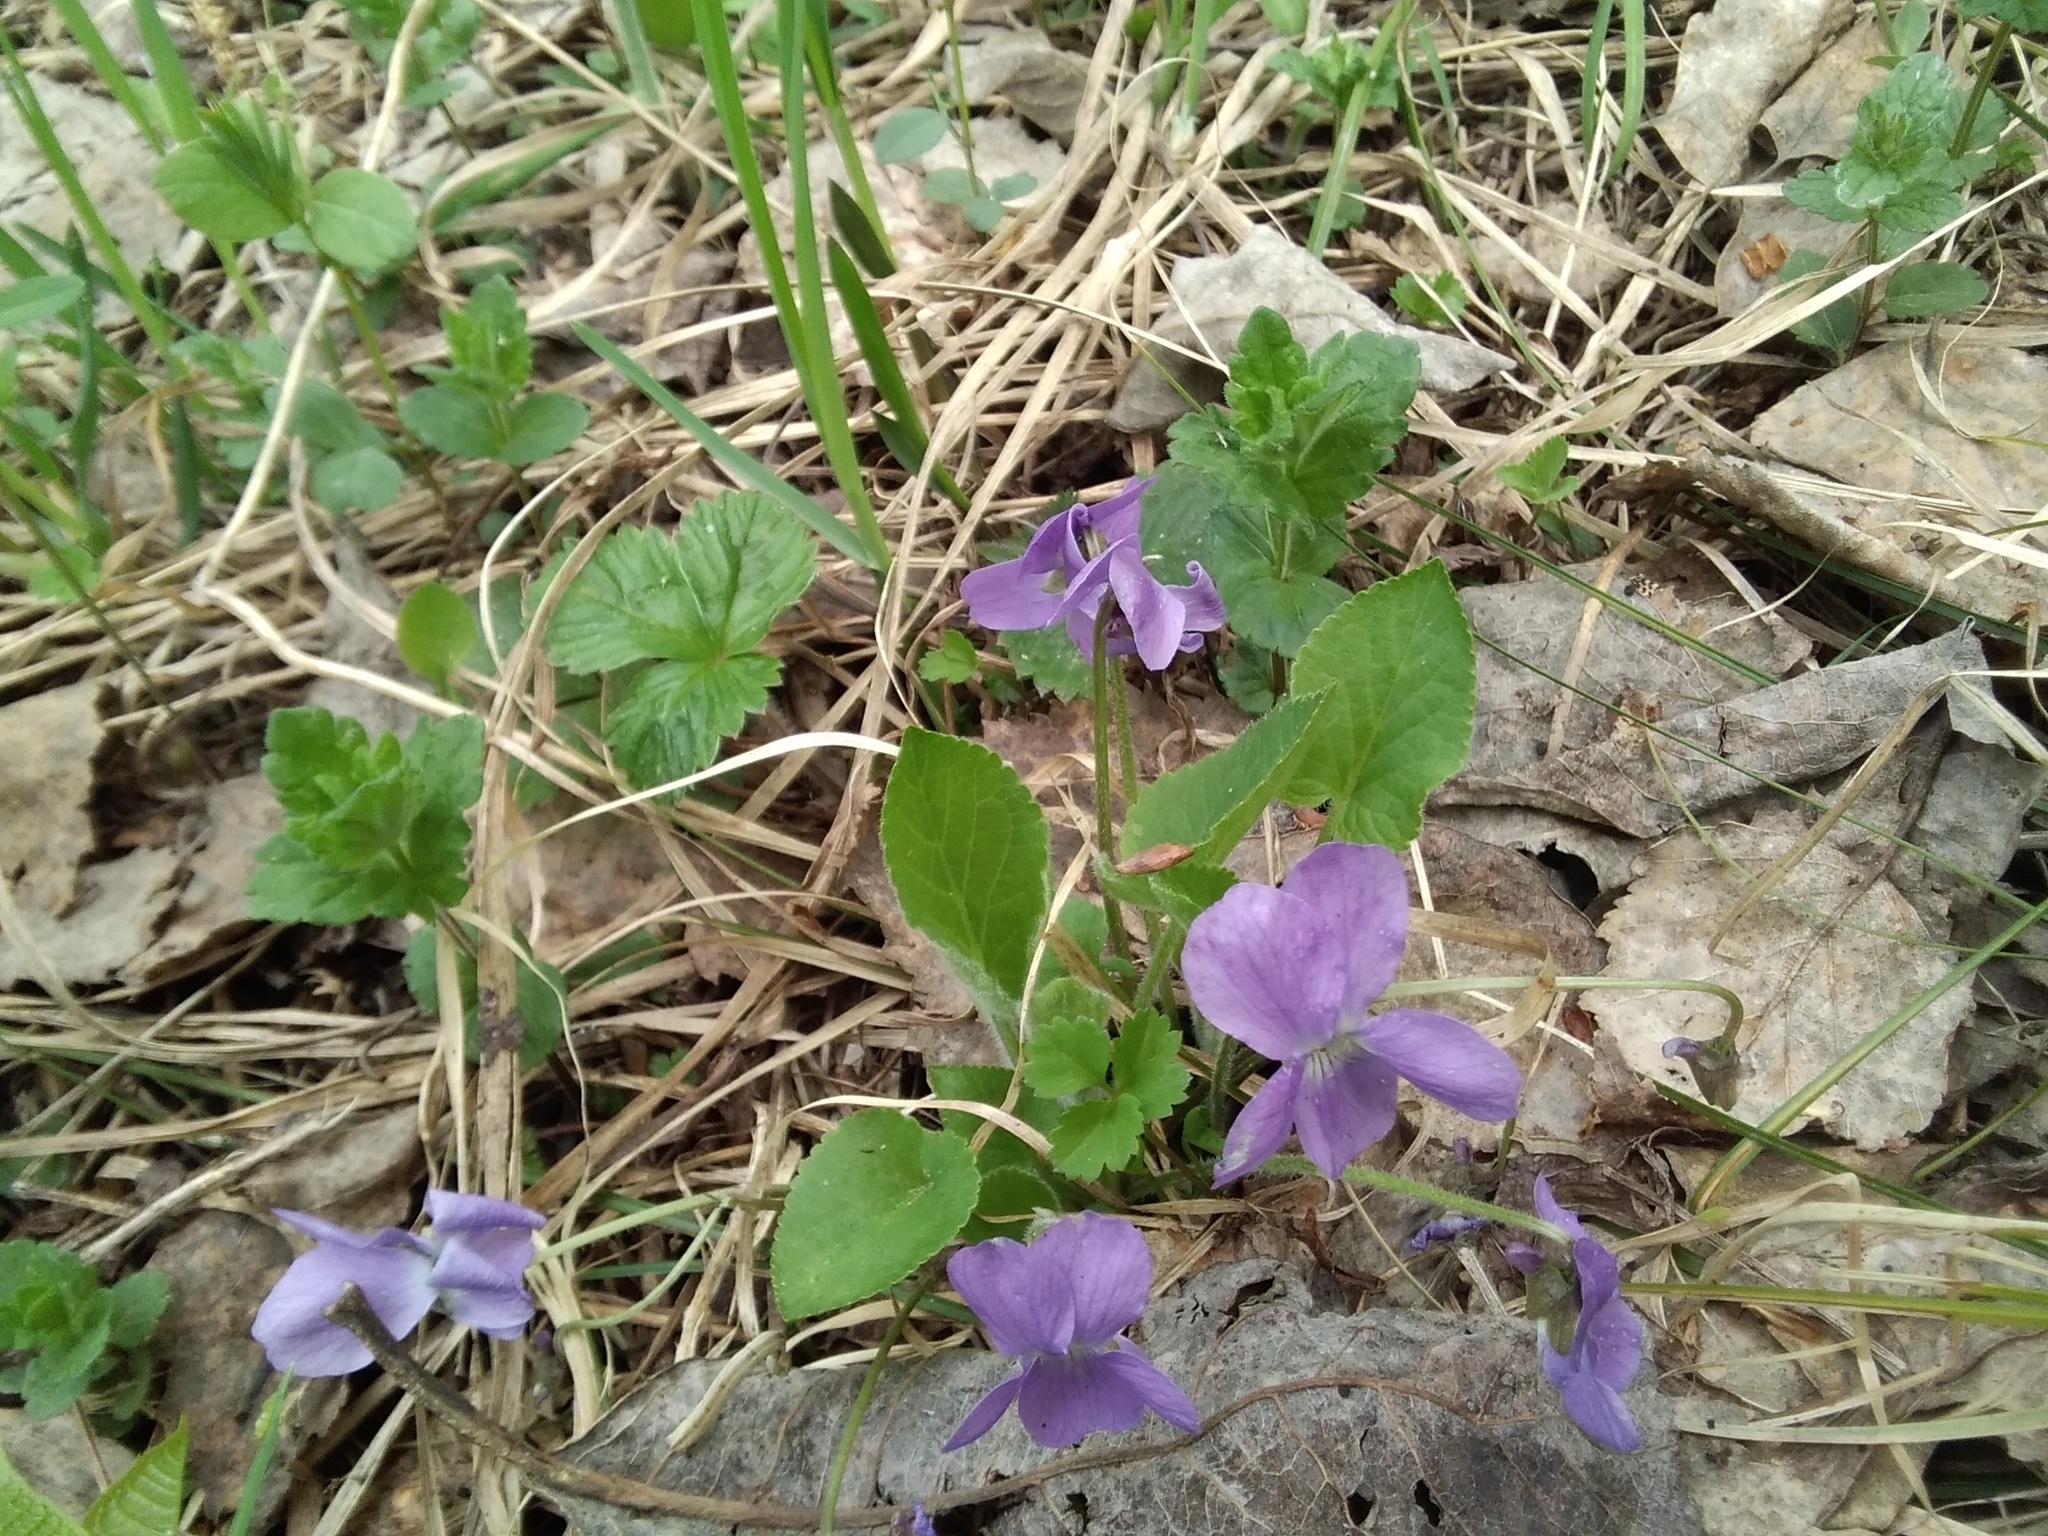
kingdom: Plantae
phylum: Tracheophyta
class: Magnoliopsida
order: Malpighiales
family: Violaceae
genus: Viola
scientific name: Viola hirta
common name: Hairy violet
